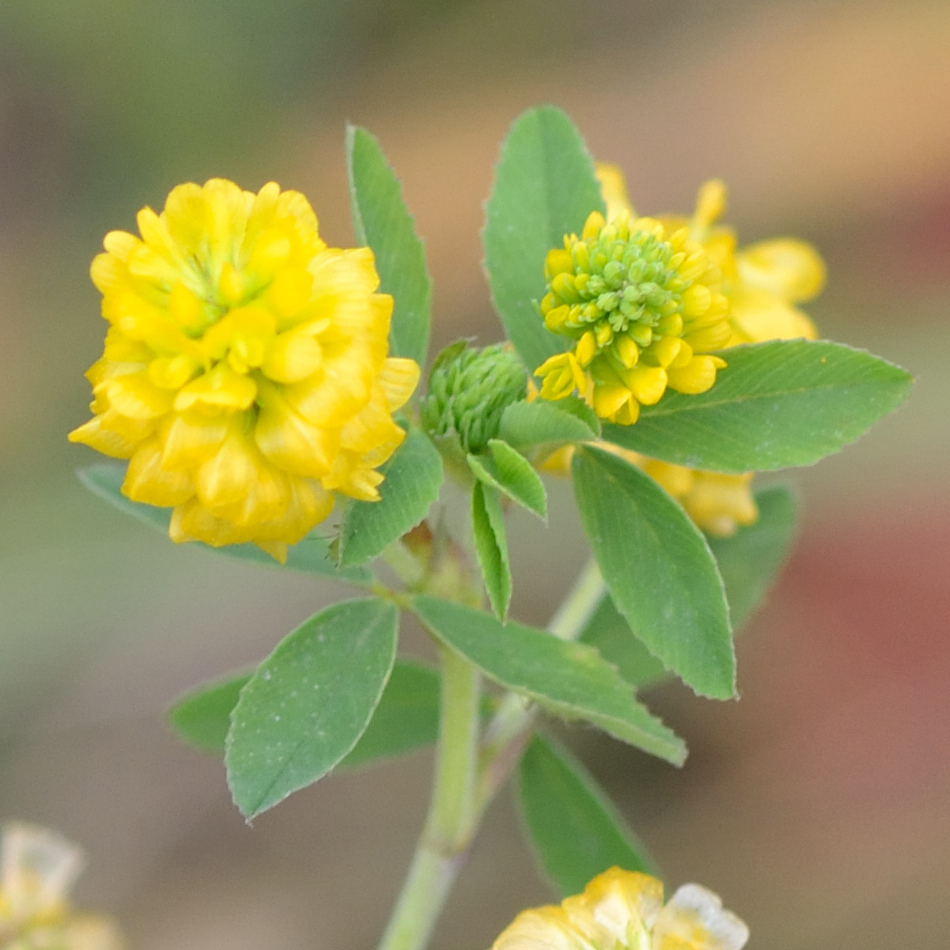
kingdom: Plantae
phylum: Tracheophyta
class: Magnoliopsida
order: Fabales
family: Fabaceae
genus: Trifolium
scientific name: Trifolium aureum
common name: Golden clover
